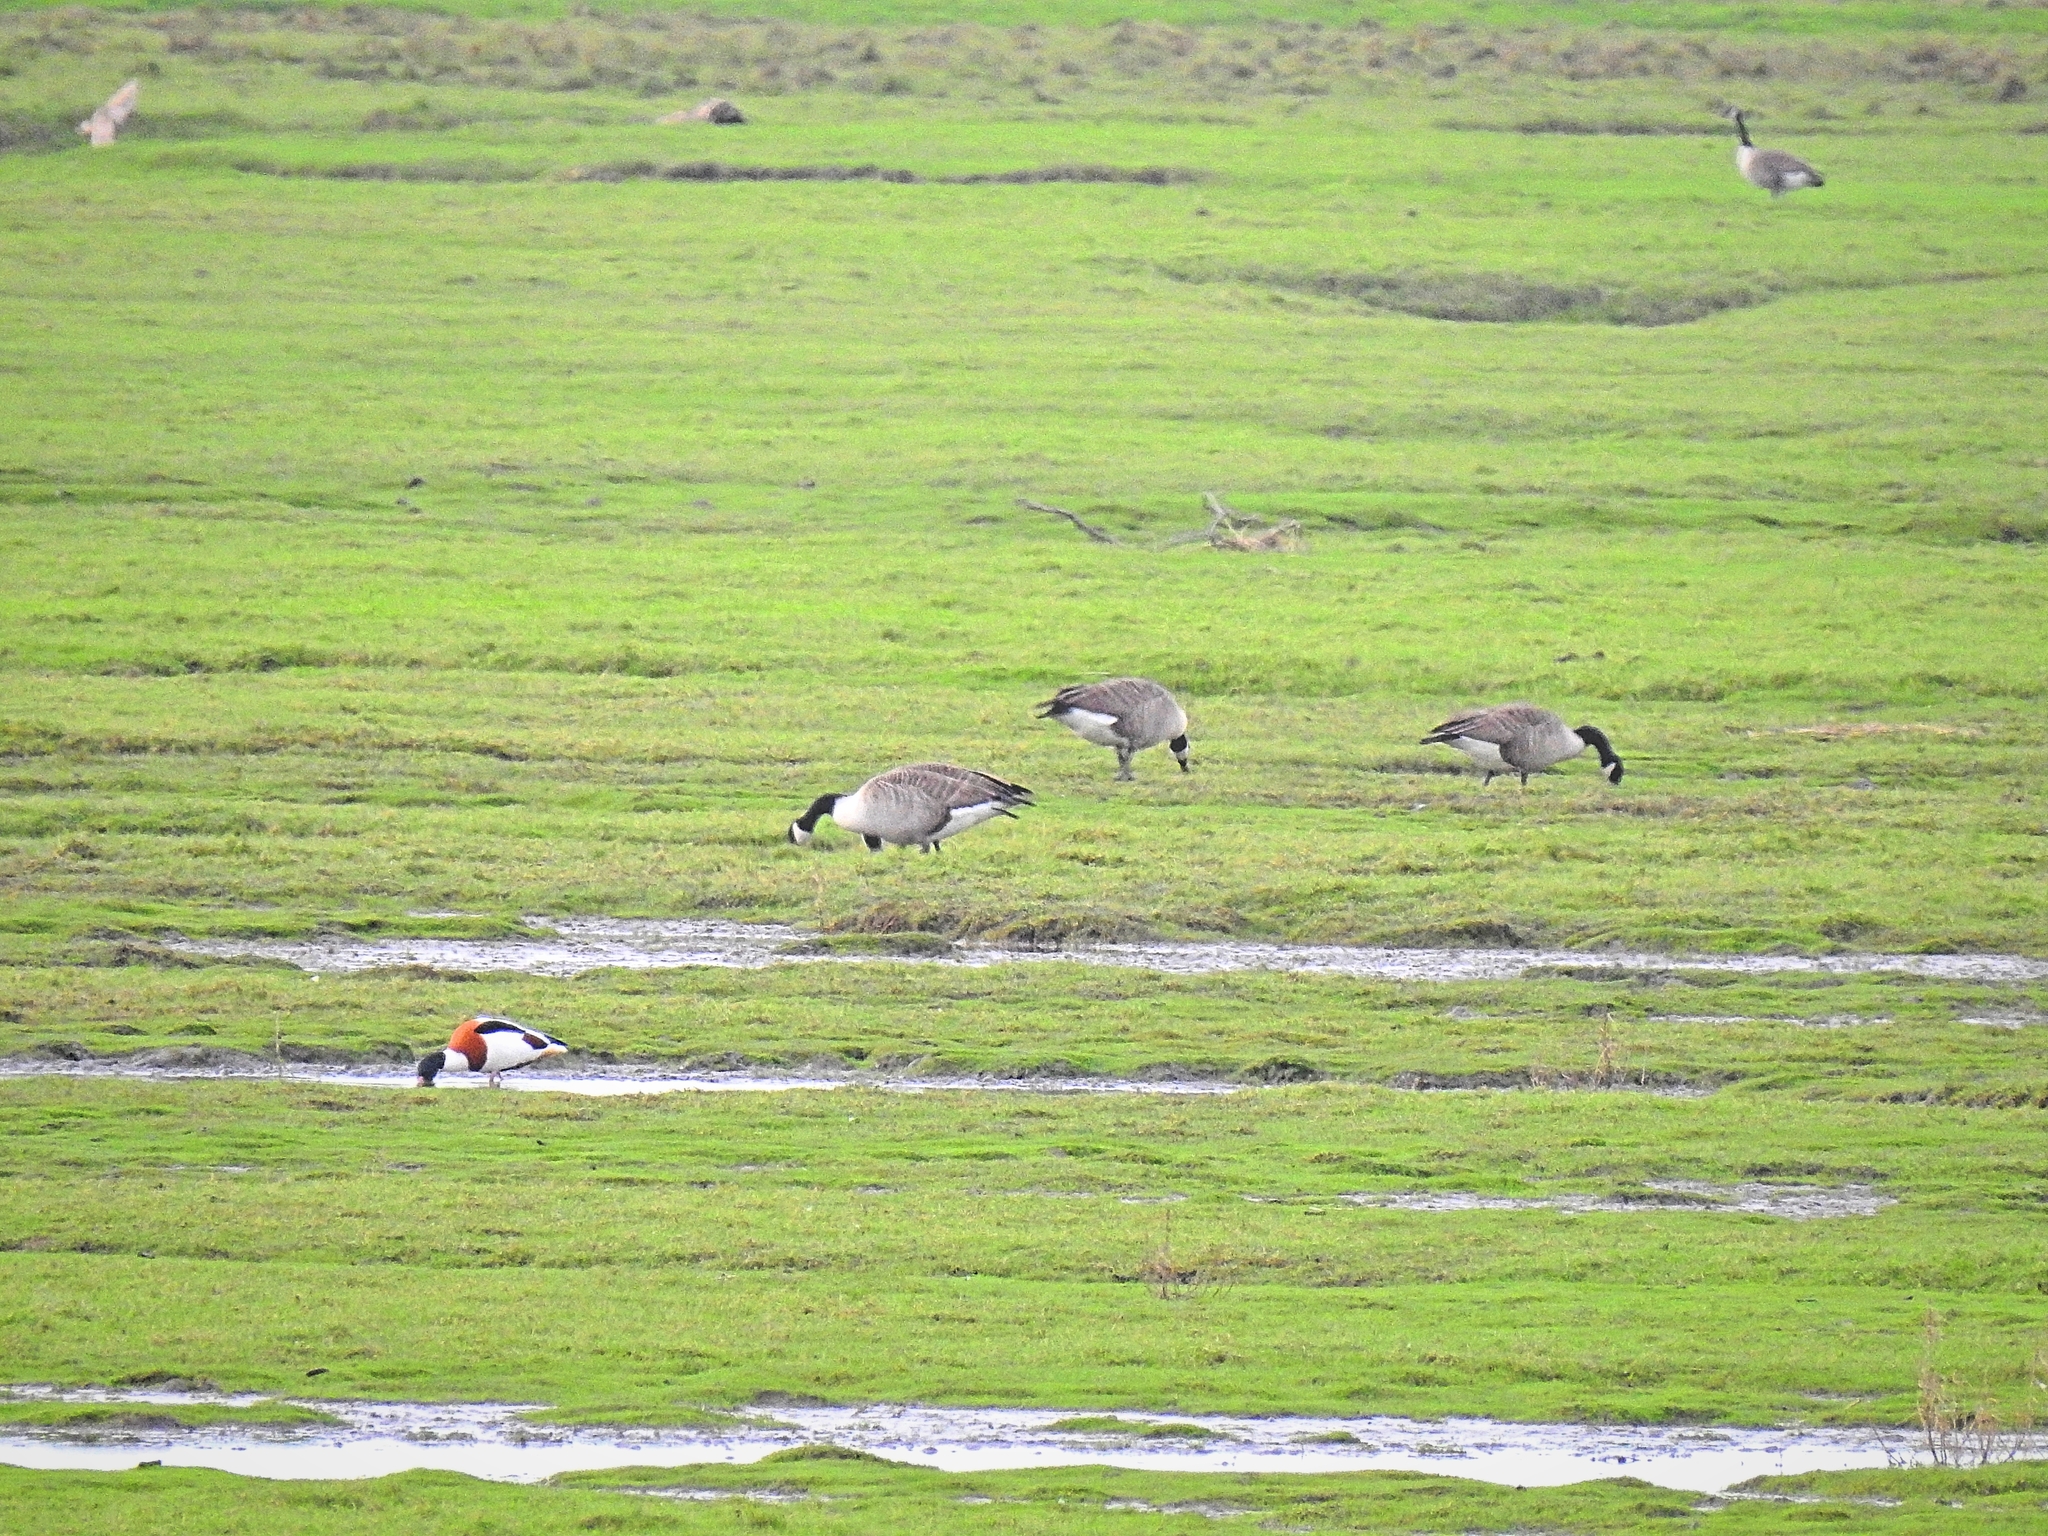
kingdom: Animalia
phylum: Chordata
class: Aves
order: Anseriformes
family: Anatidae
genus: Tadorna
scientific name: Tadorna tadorna
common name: Common shelduck
